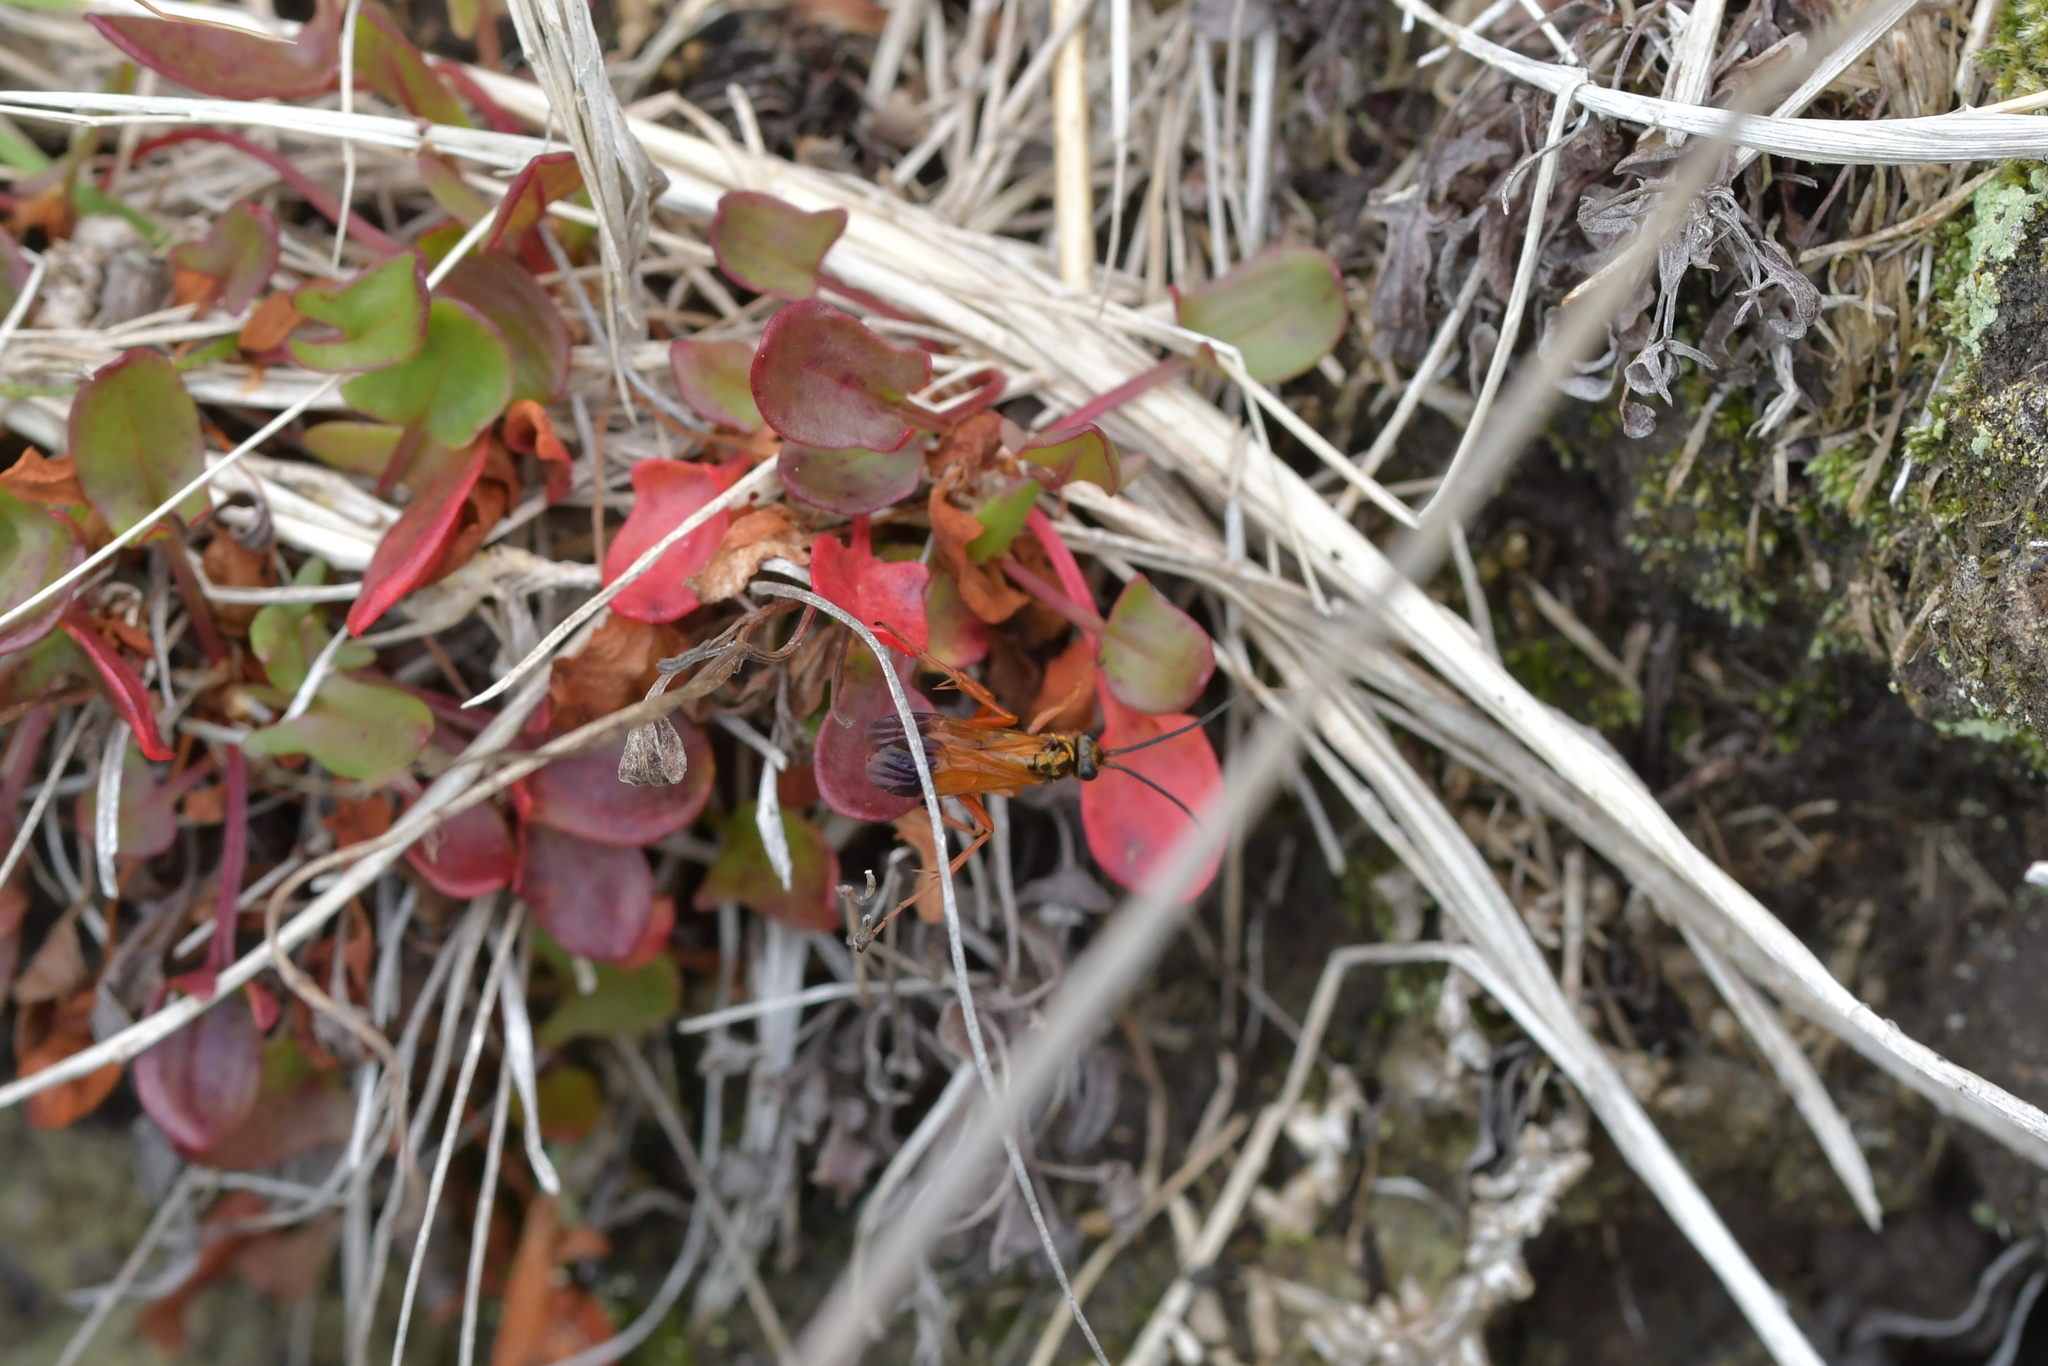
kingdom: Animalia
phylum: Arthropoda
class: Insecta
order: Hymenoptera
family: Pompilidae
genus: Sphictostethus
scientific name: Sphictostethus fugax
